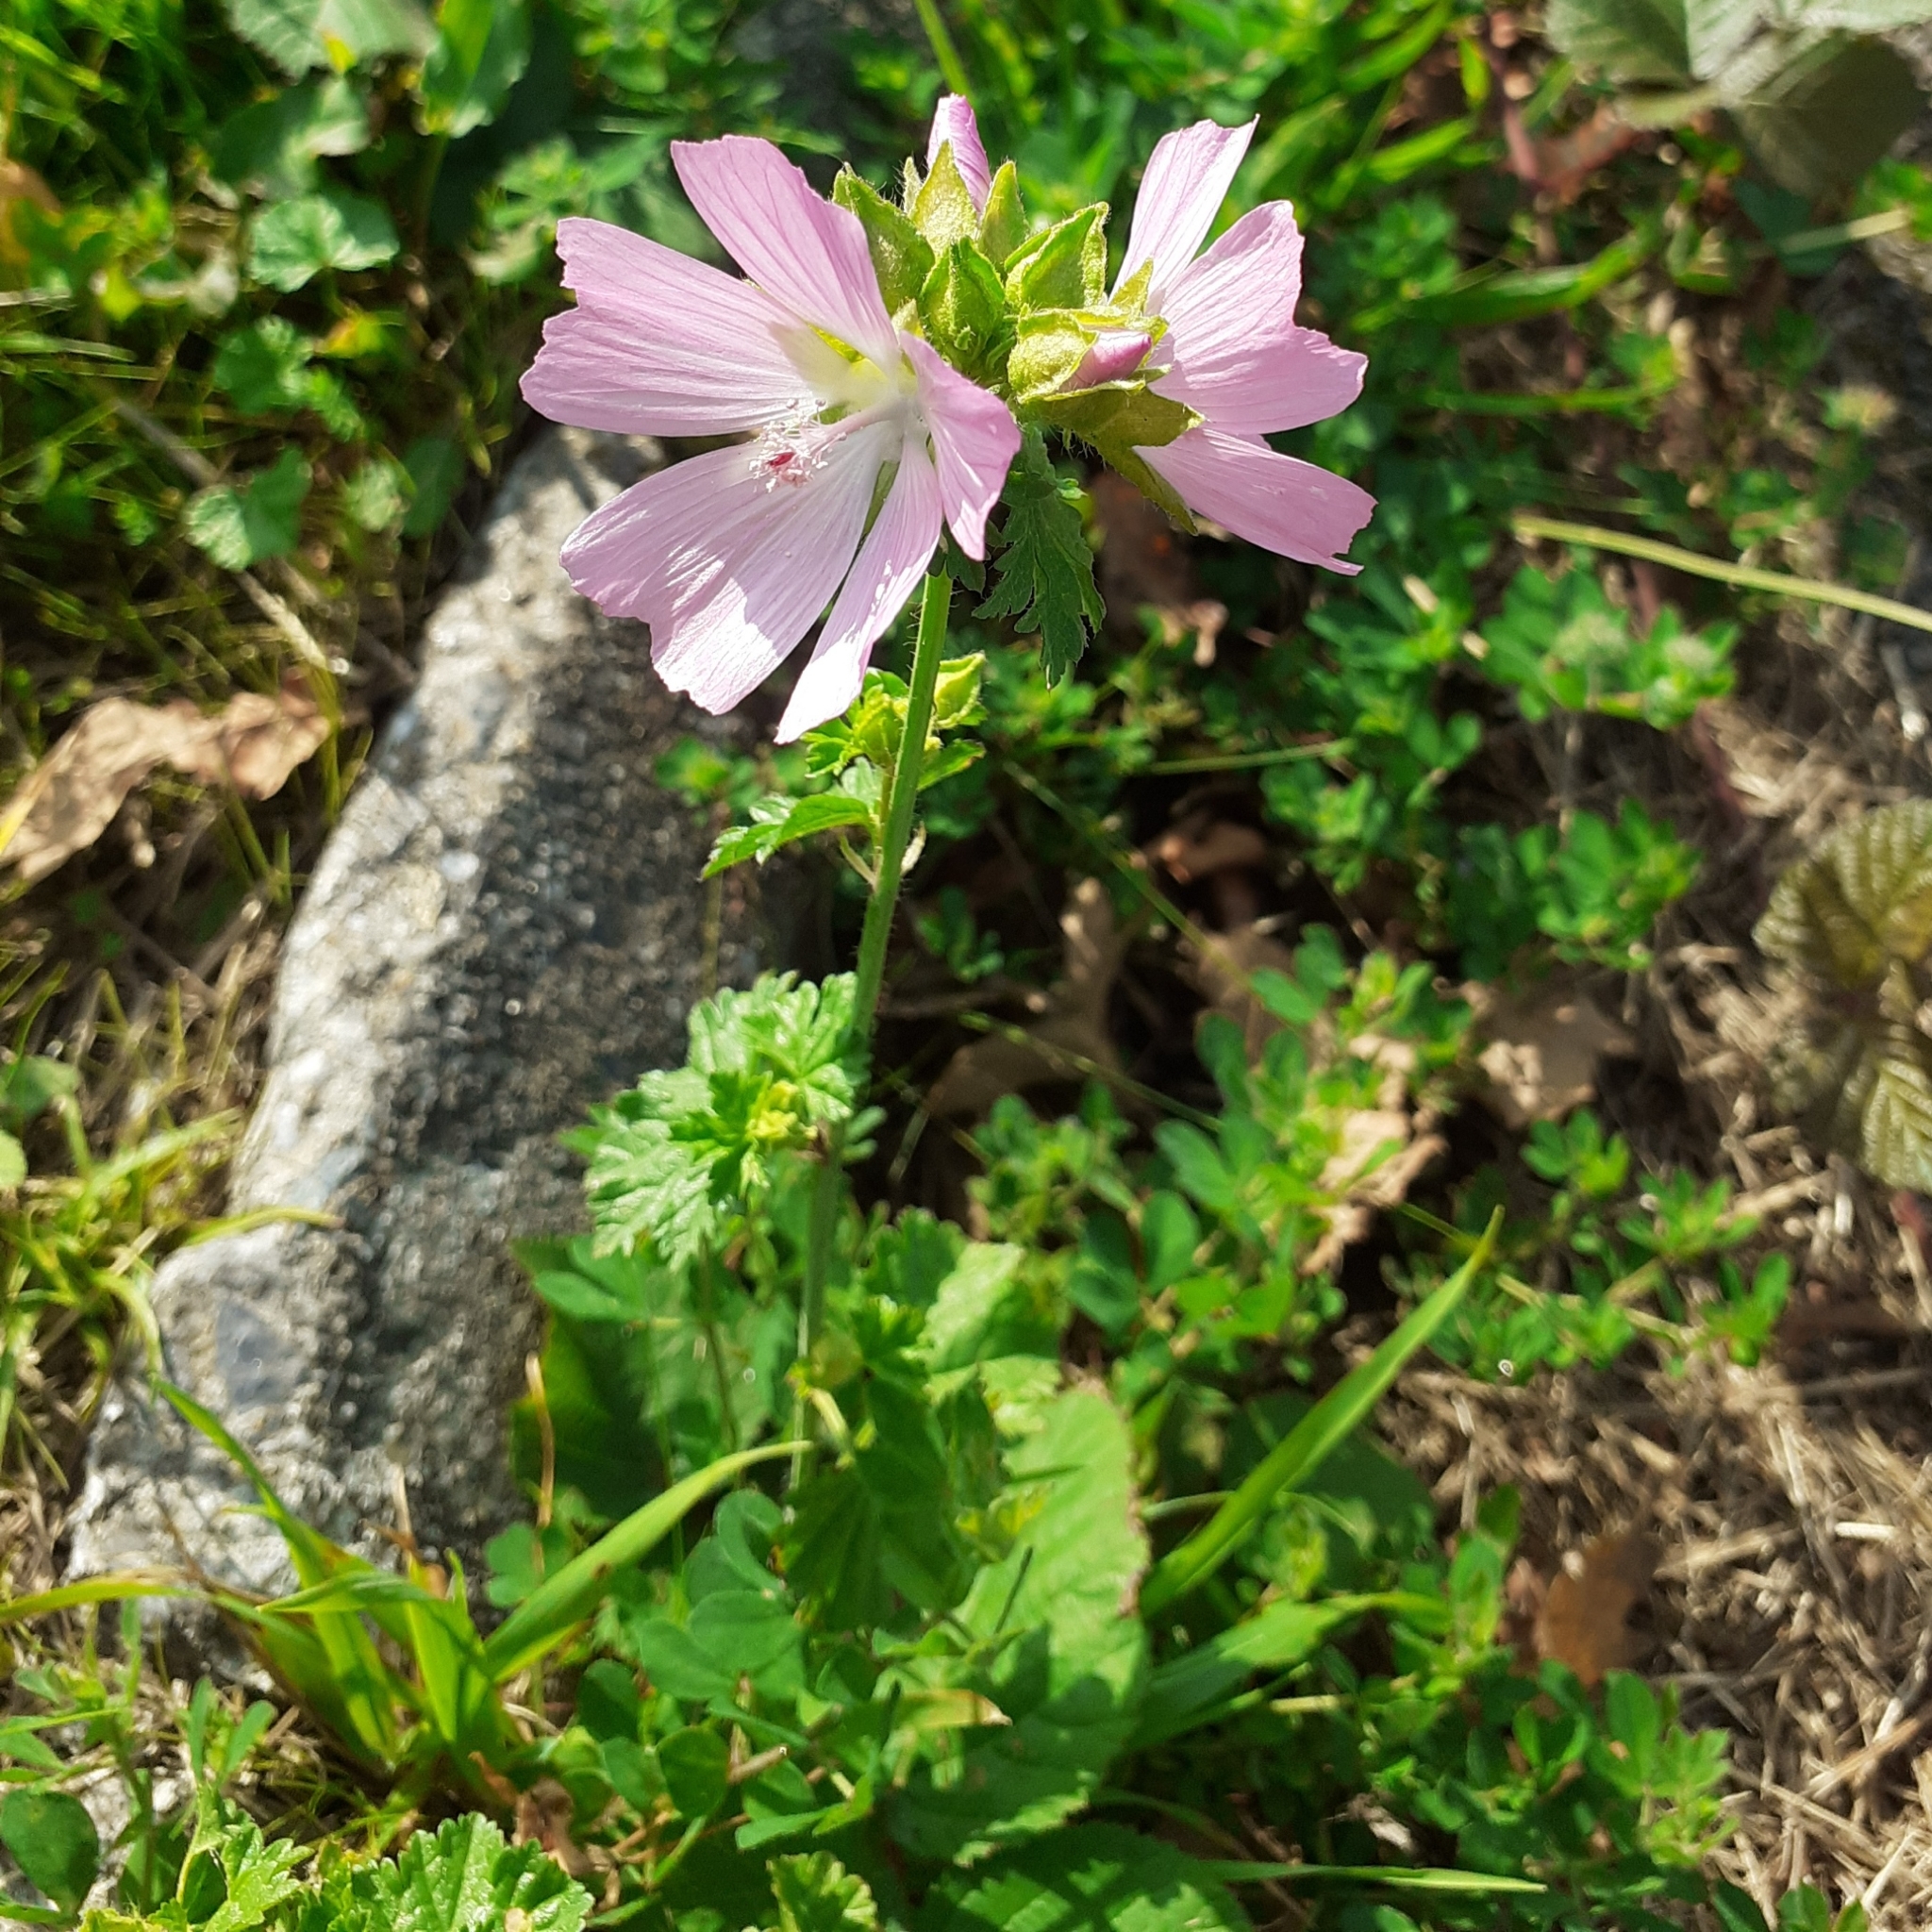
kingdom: Plantae
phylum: Tracheophyta
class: Magnoliopsida
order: Malvales
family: Malvaceae
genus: Malva
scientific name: Malva moschata
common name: Musk mallow
